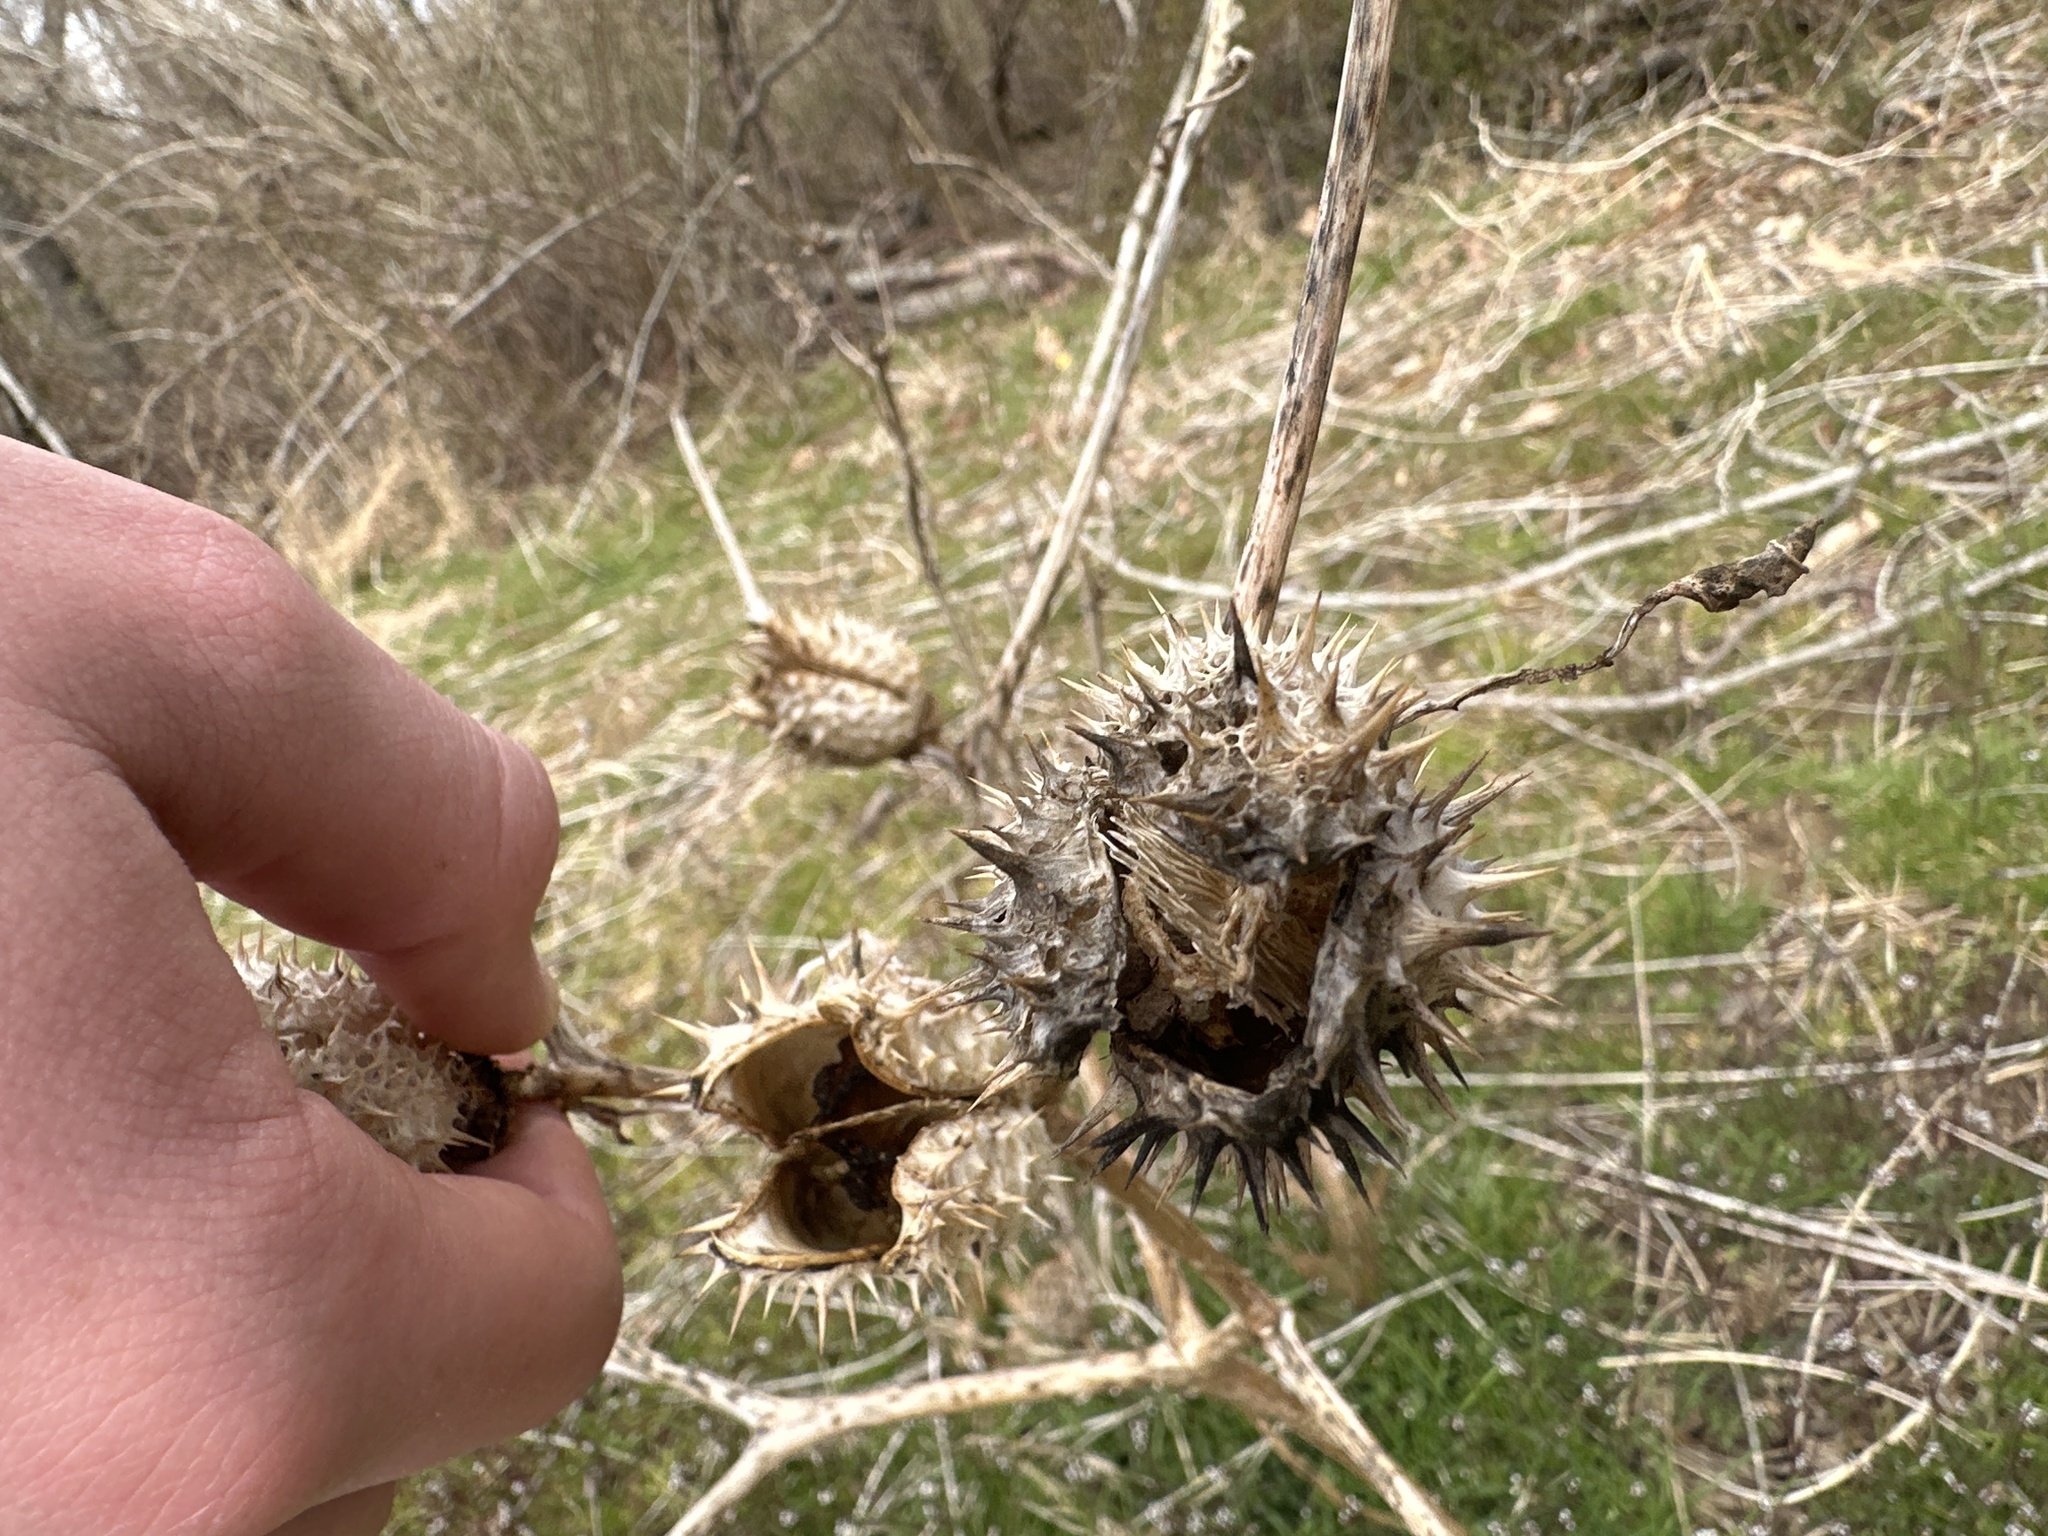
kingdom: Plantae
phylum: Tracheophyta
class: Magnoliopsida
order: Solanales
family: Solanaceae
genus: Datura
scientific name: Datura stramonium
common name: Thorn-apple
